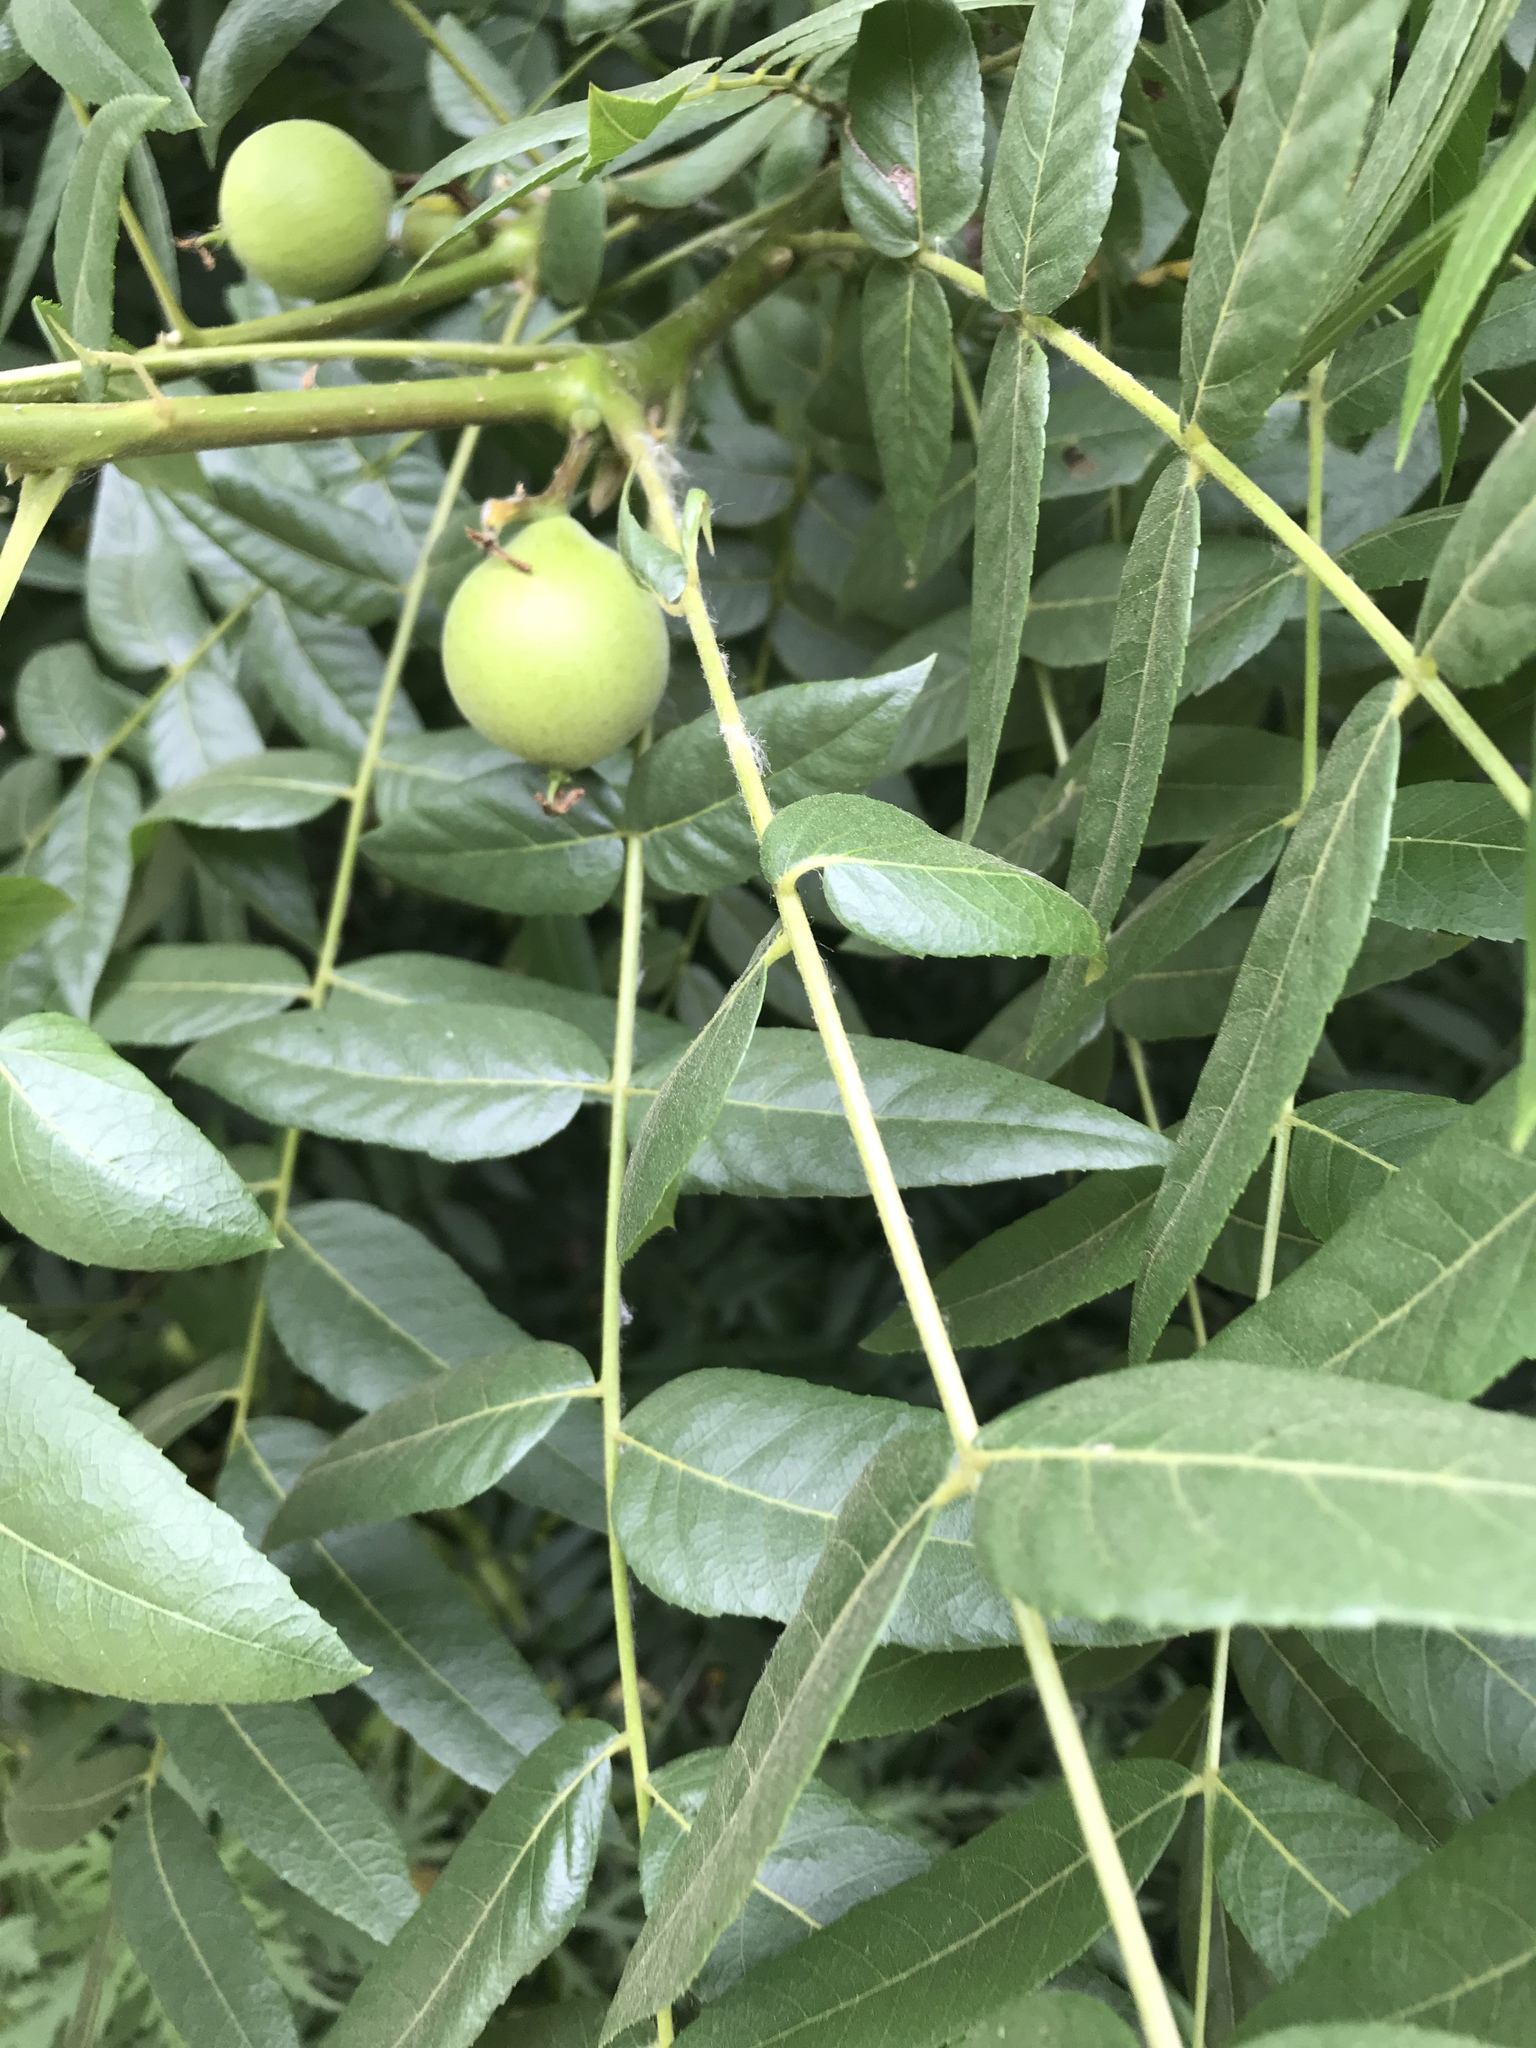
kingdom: Plantae
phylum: Tracheophyta
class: Magnoliopsida
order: Fagales
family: Juglandaceae
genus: Juglans
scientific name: Juglans californica
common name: Southern california black walnut
